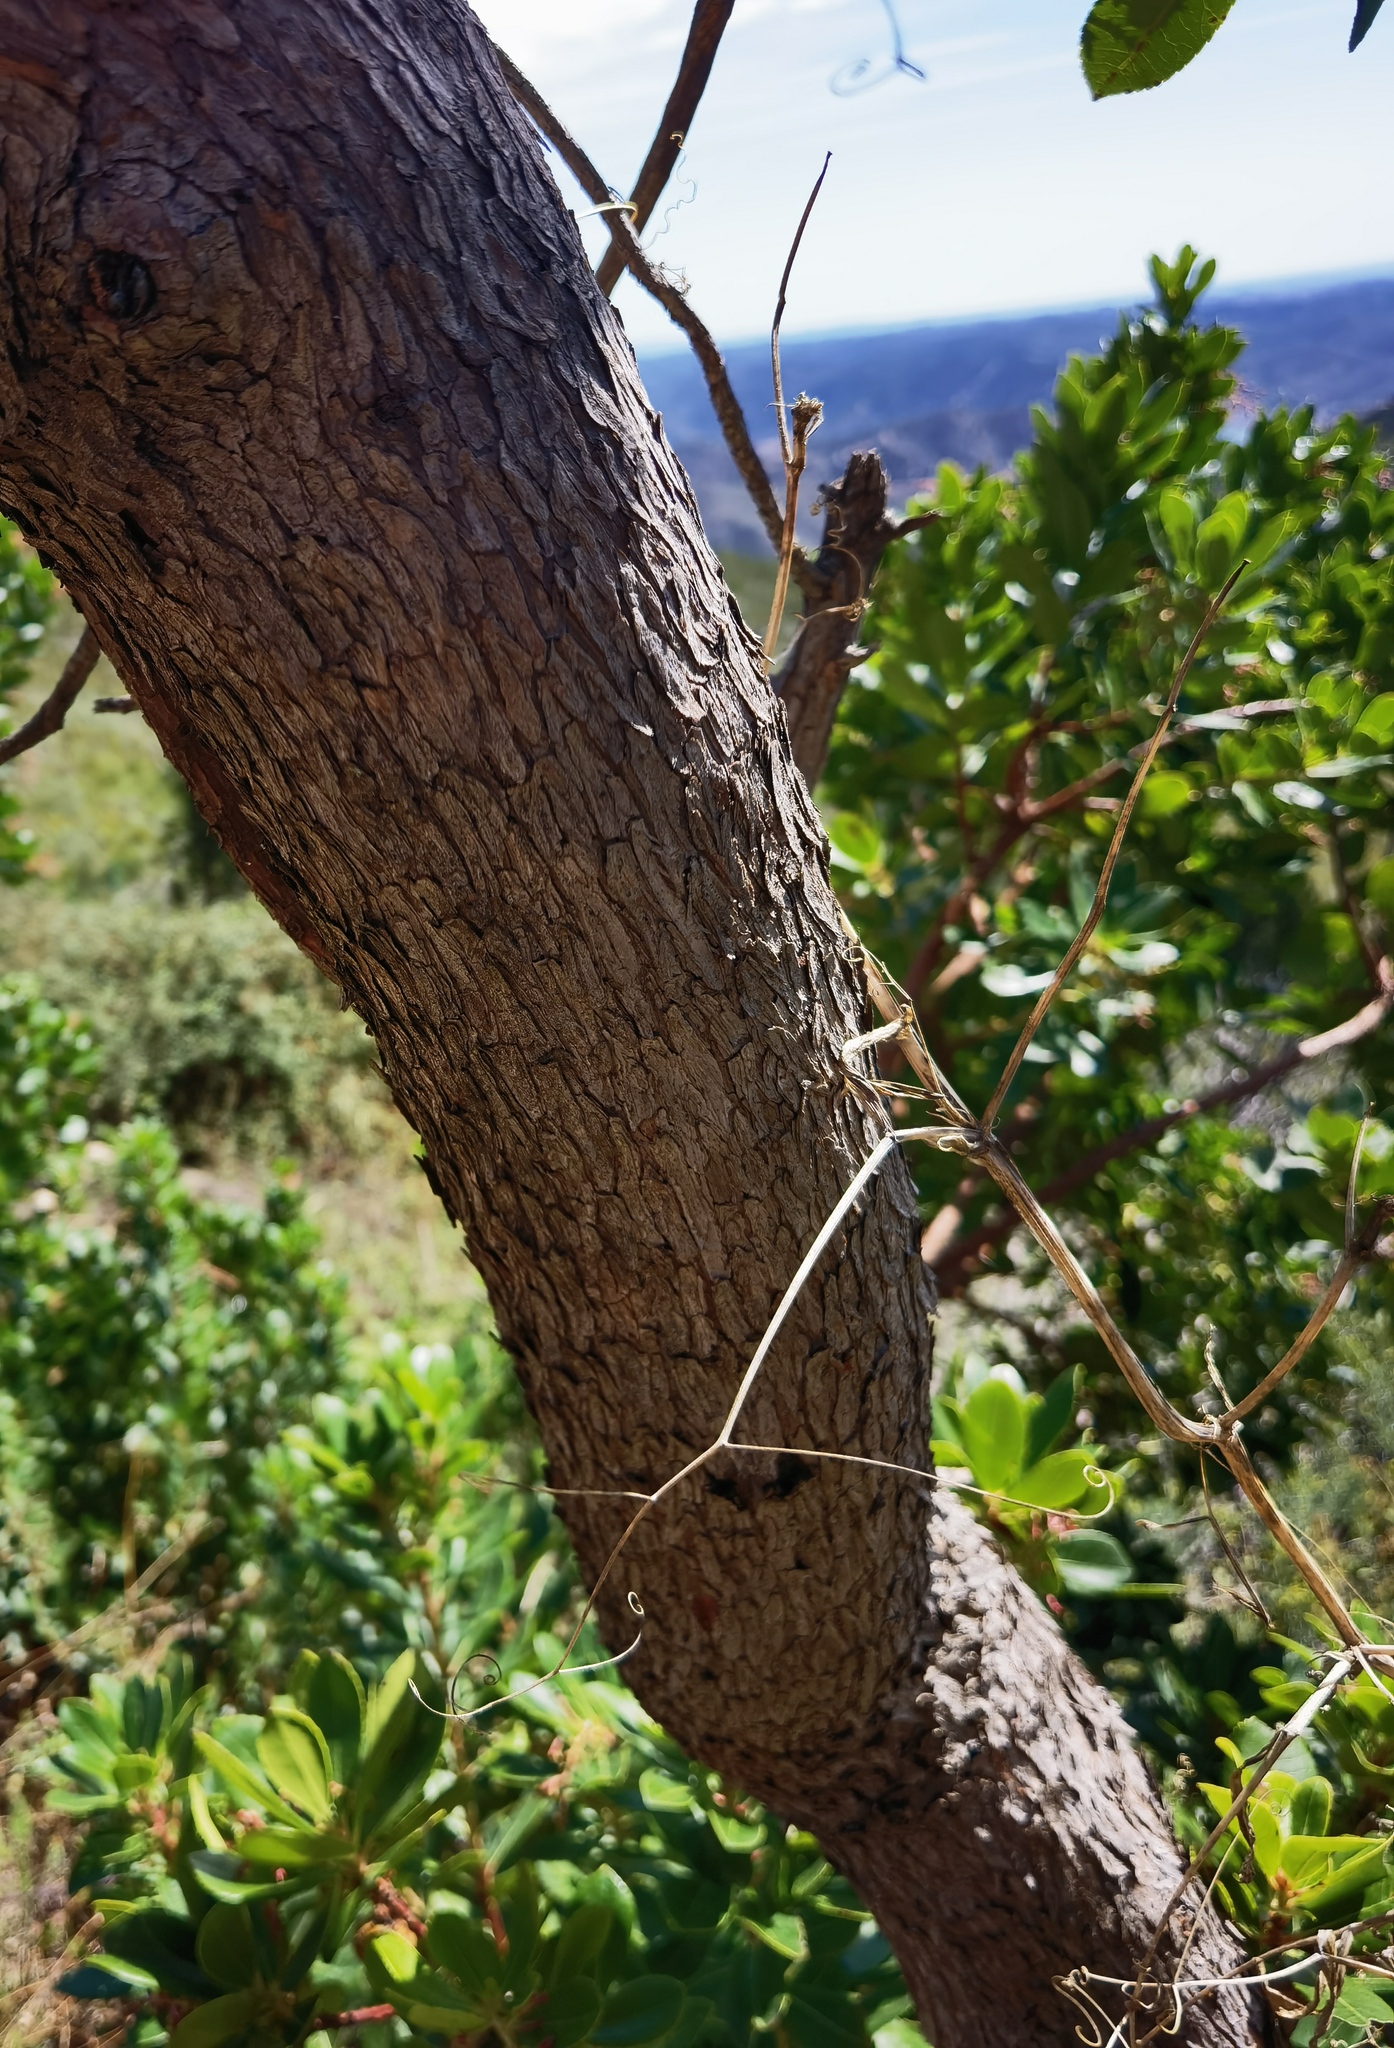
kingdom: Plantae
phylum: Tracheophyta
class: Magnoliopsida
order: Ericales
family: Ericaceae
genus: Arbutus
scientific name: Arbutus unedo
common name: Strawberry-tree
